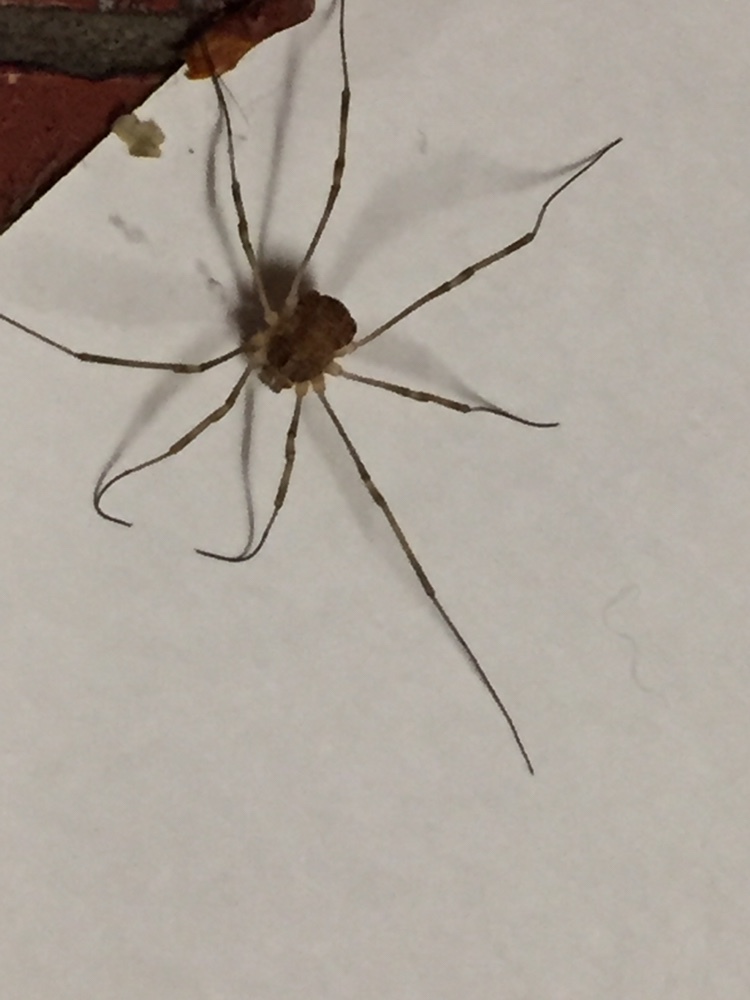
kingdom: Animalia
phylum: Arthropoda
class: Arachnida
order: Opiliones
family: Phalangiidae
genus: Rilaena
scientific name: Rilaena triangularis
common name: Spring harvestman
